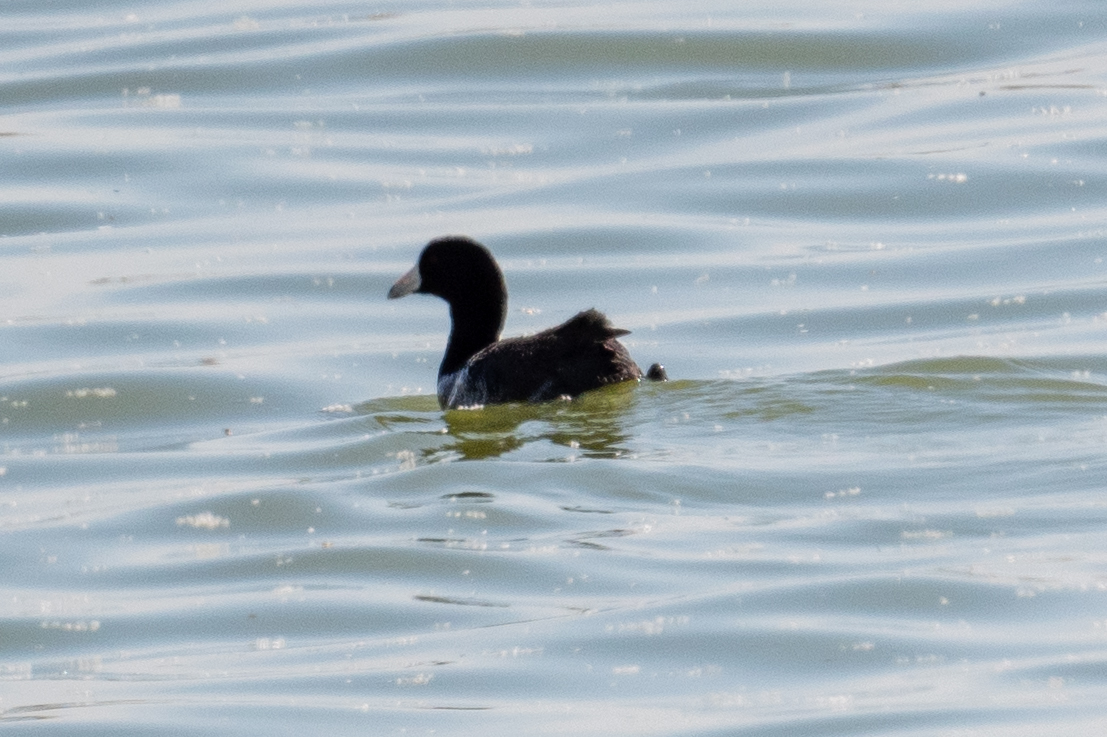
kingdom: Animalia
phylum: Chordata
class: Aves
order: Gruiformes
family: Rallidae
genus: Fulica
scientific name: Fulica americana
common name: American coot
